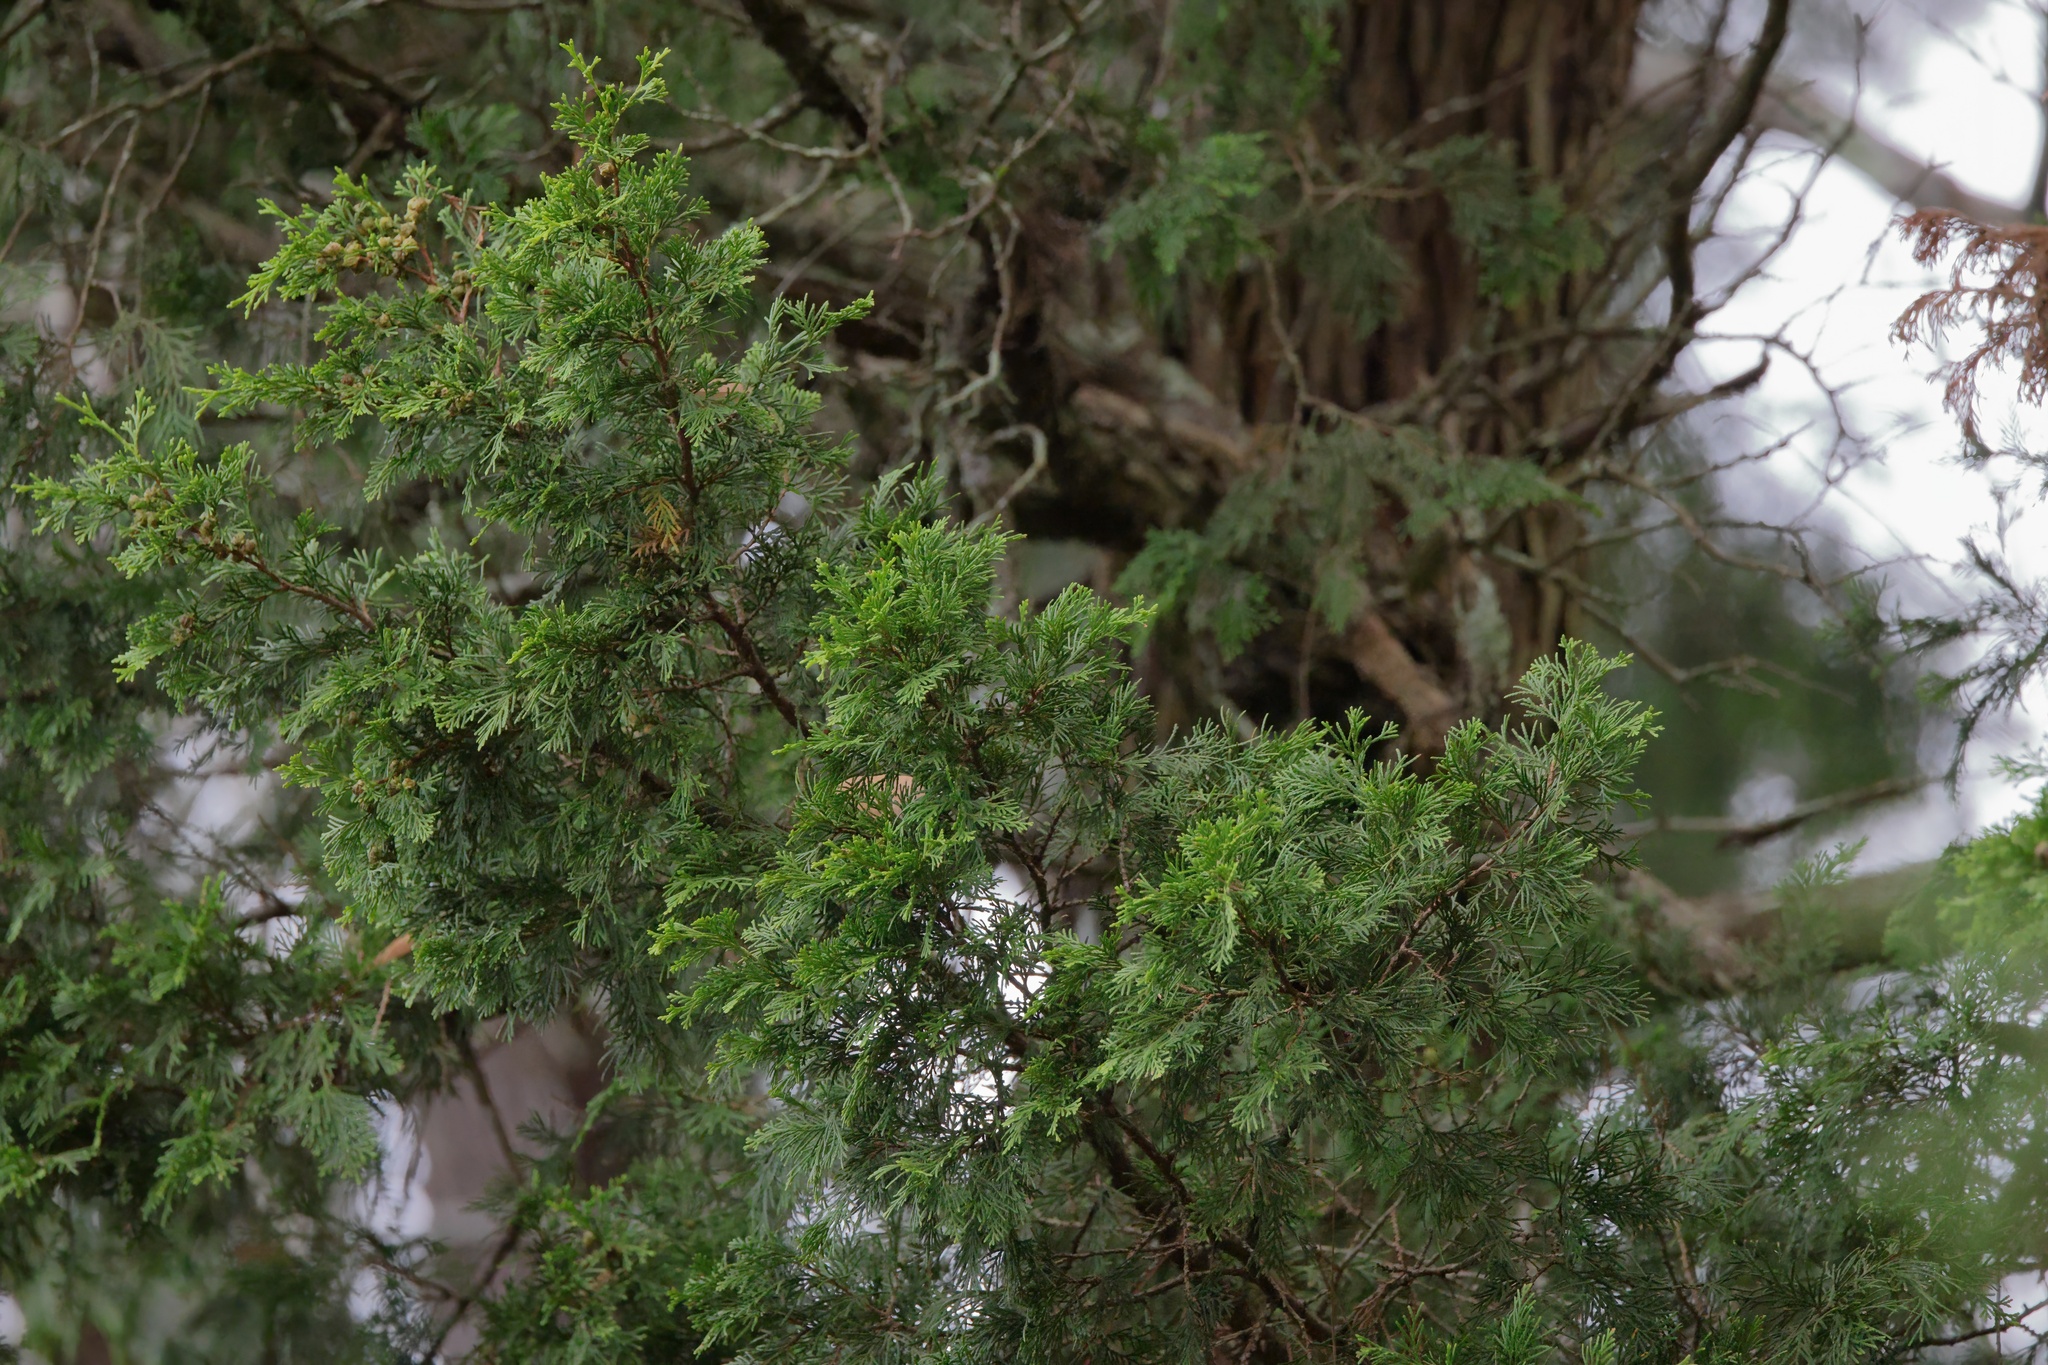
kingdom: Plantae
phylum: Tracheophyta
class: Pinopsida
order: Pinales
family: Cupressaceae
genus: Chamaecyparis
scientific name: Chamaecyparis thyoides
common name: Atlantic white cedar
